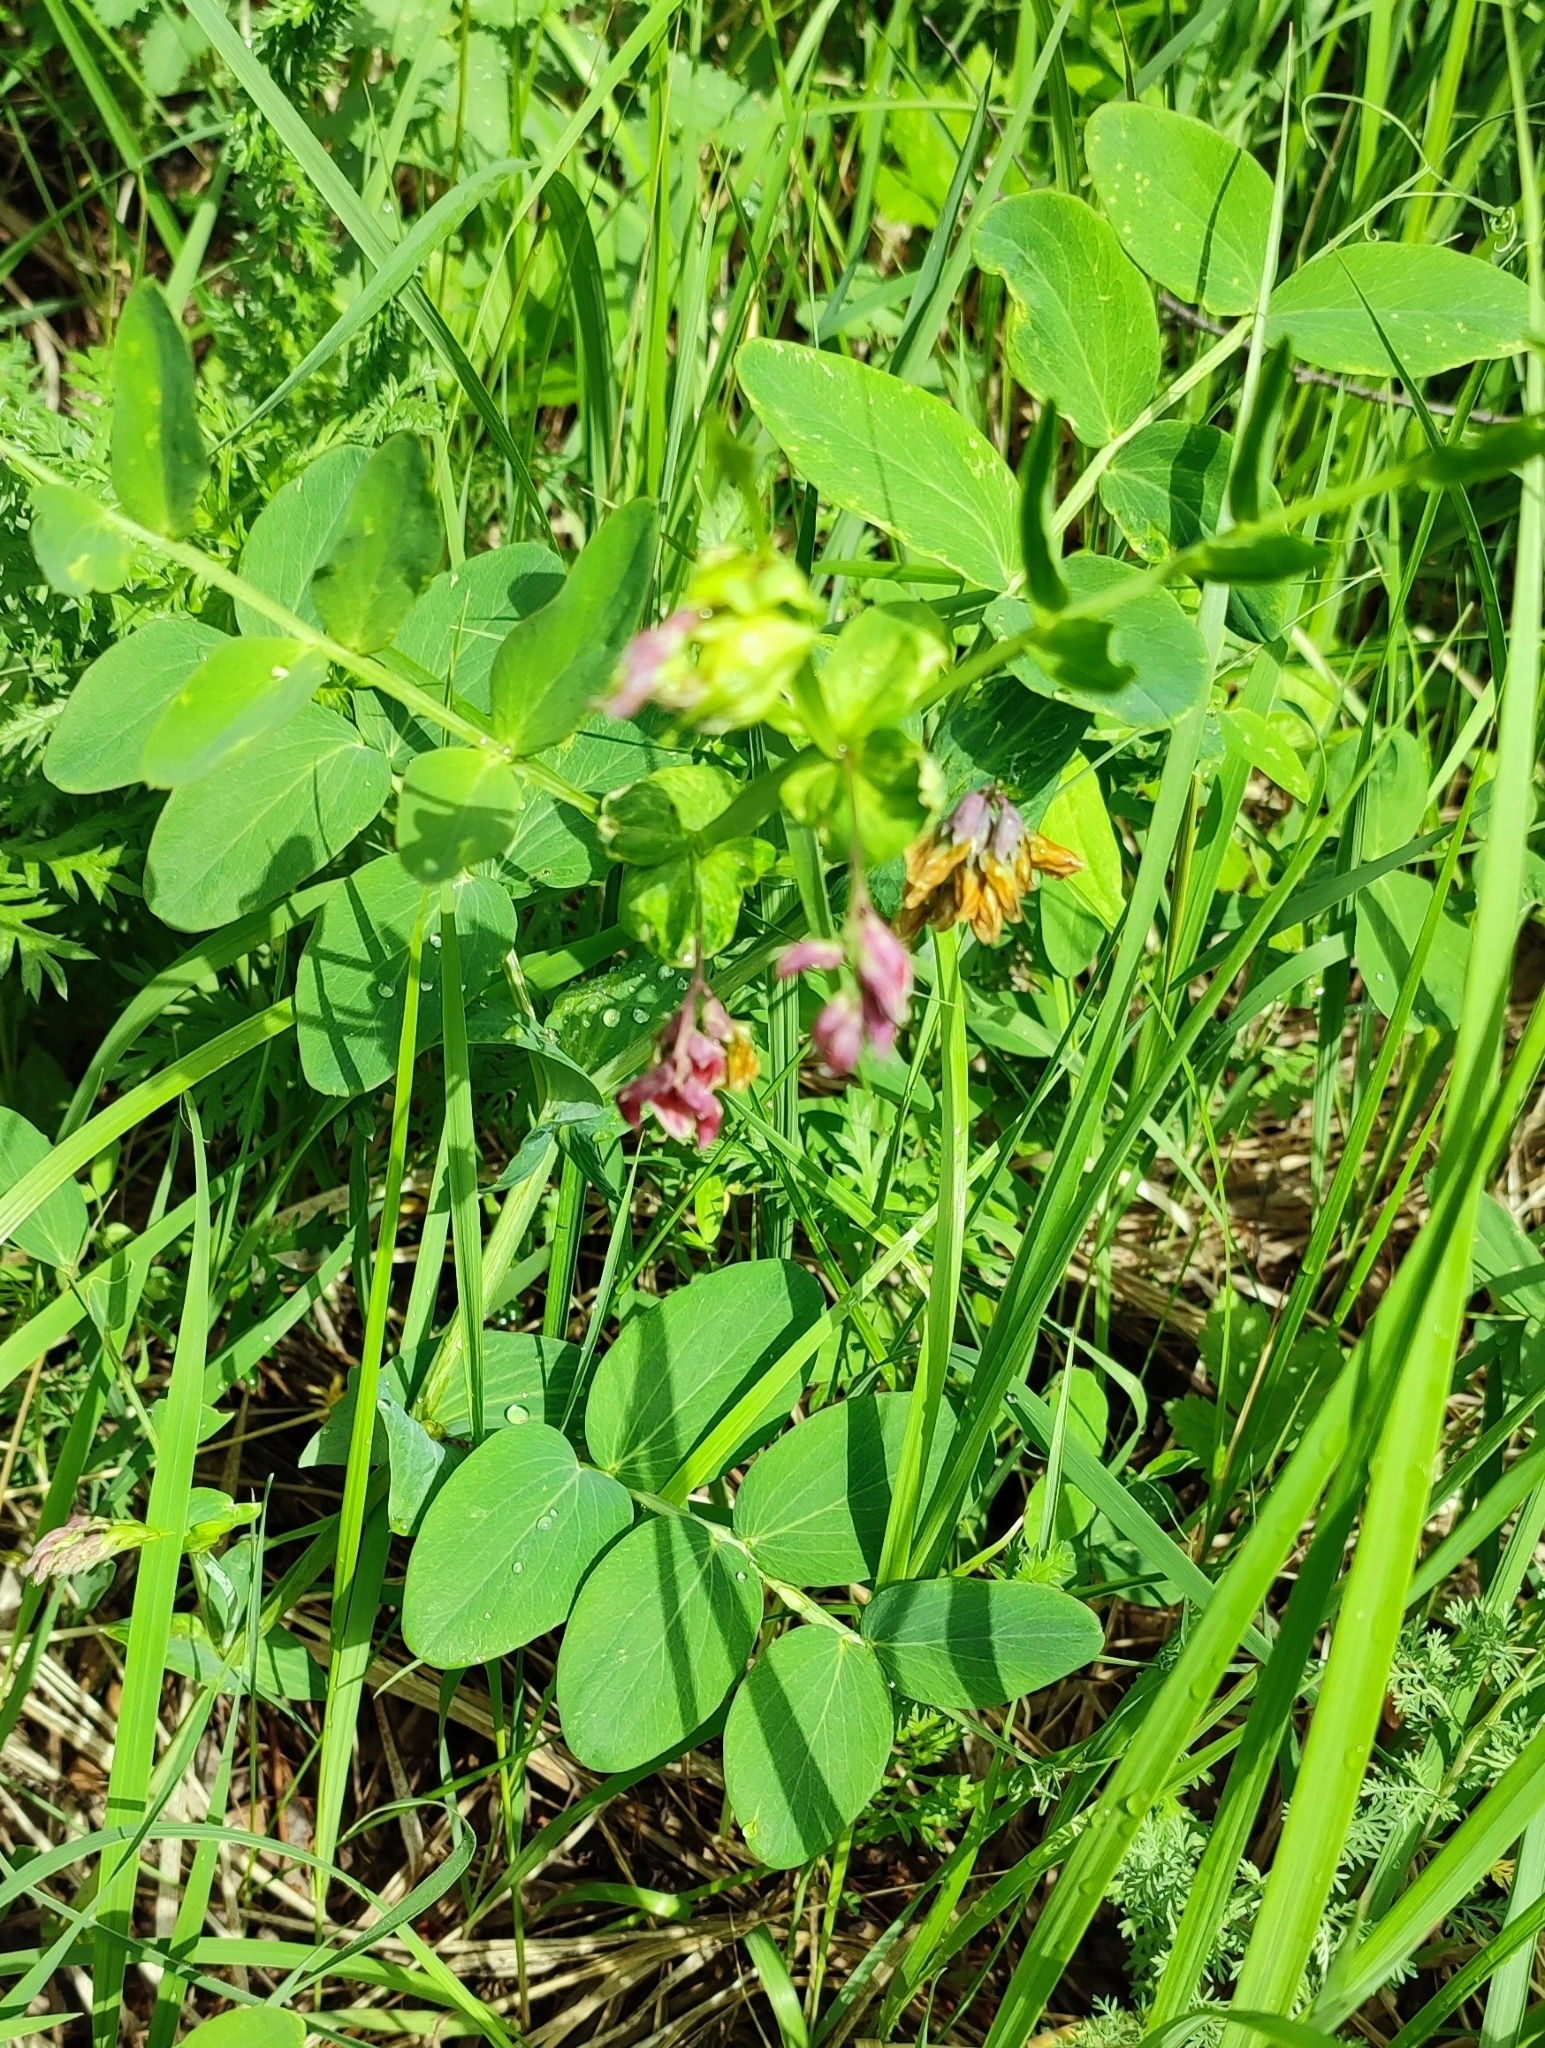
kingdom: Plantae
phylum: Tracheophyta
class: Magnoliopsida
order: Fabales
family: Fabaceae
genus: Lathyrus
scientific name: Lathyrus pisiformis
